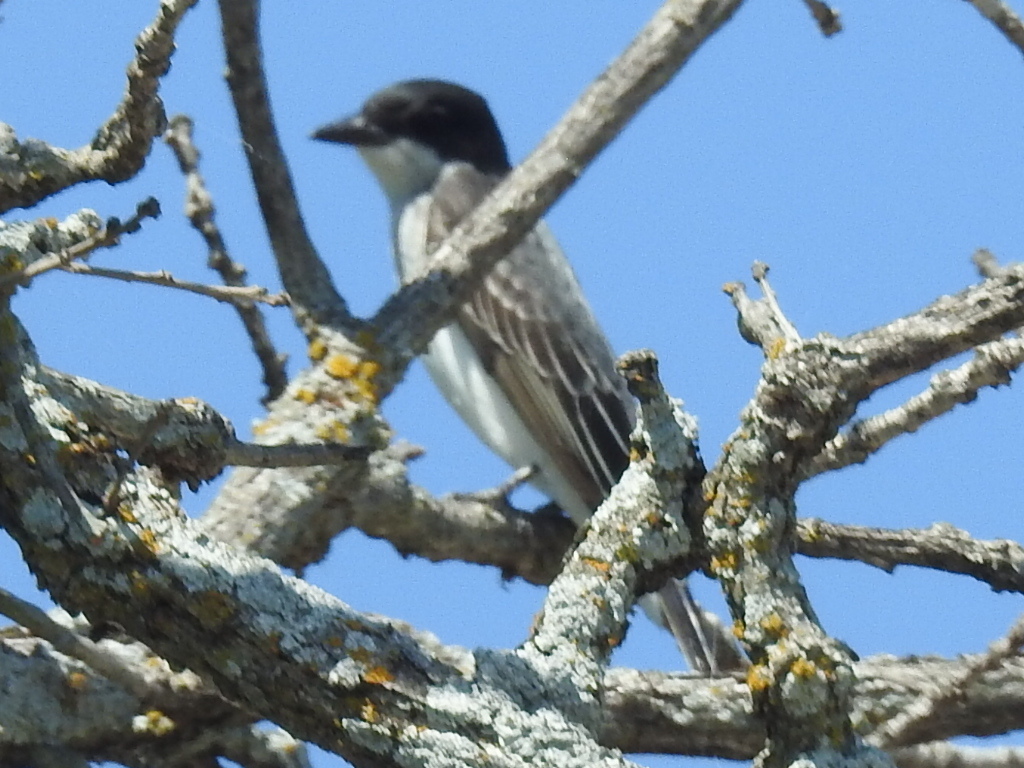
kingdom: Animalia
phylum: Chordata
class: Aves
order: Passeriformes
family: Tyrannidae
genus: Tyrannus
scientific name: Tyrannus tyrannus
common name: Eastern kingbird
